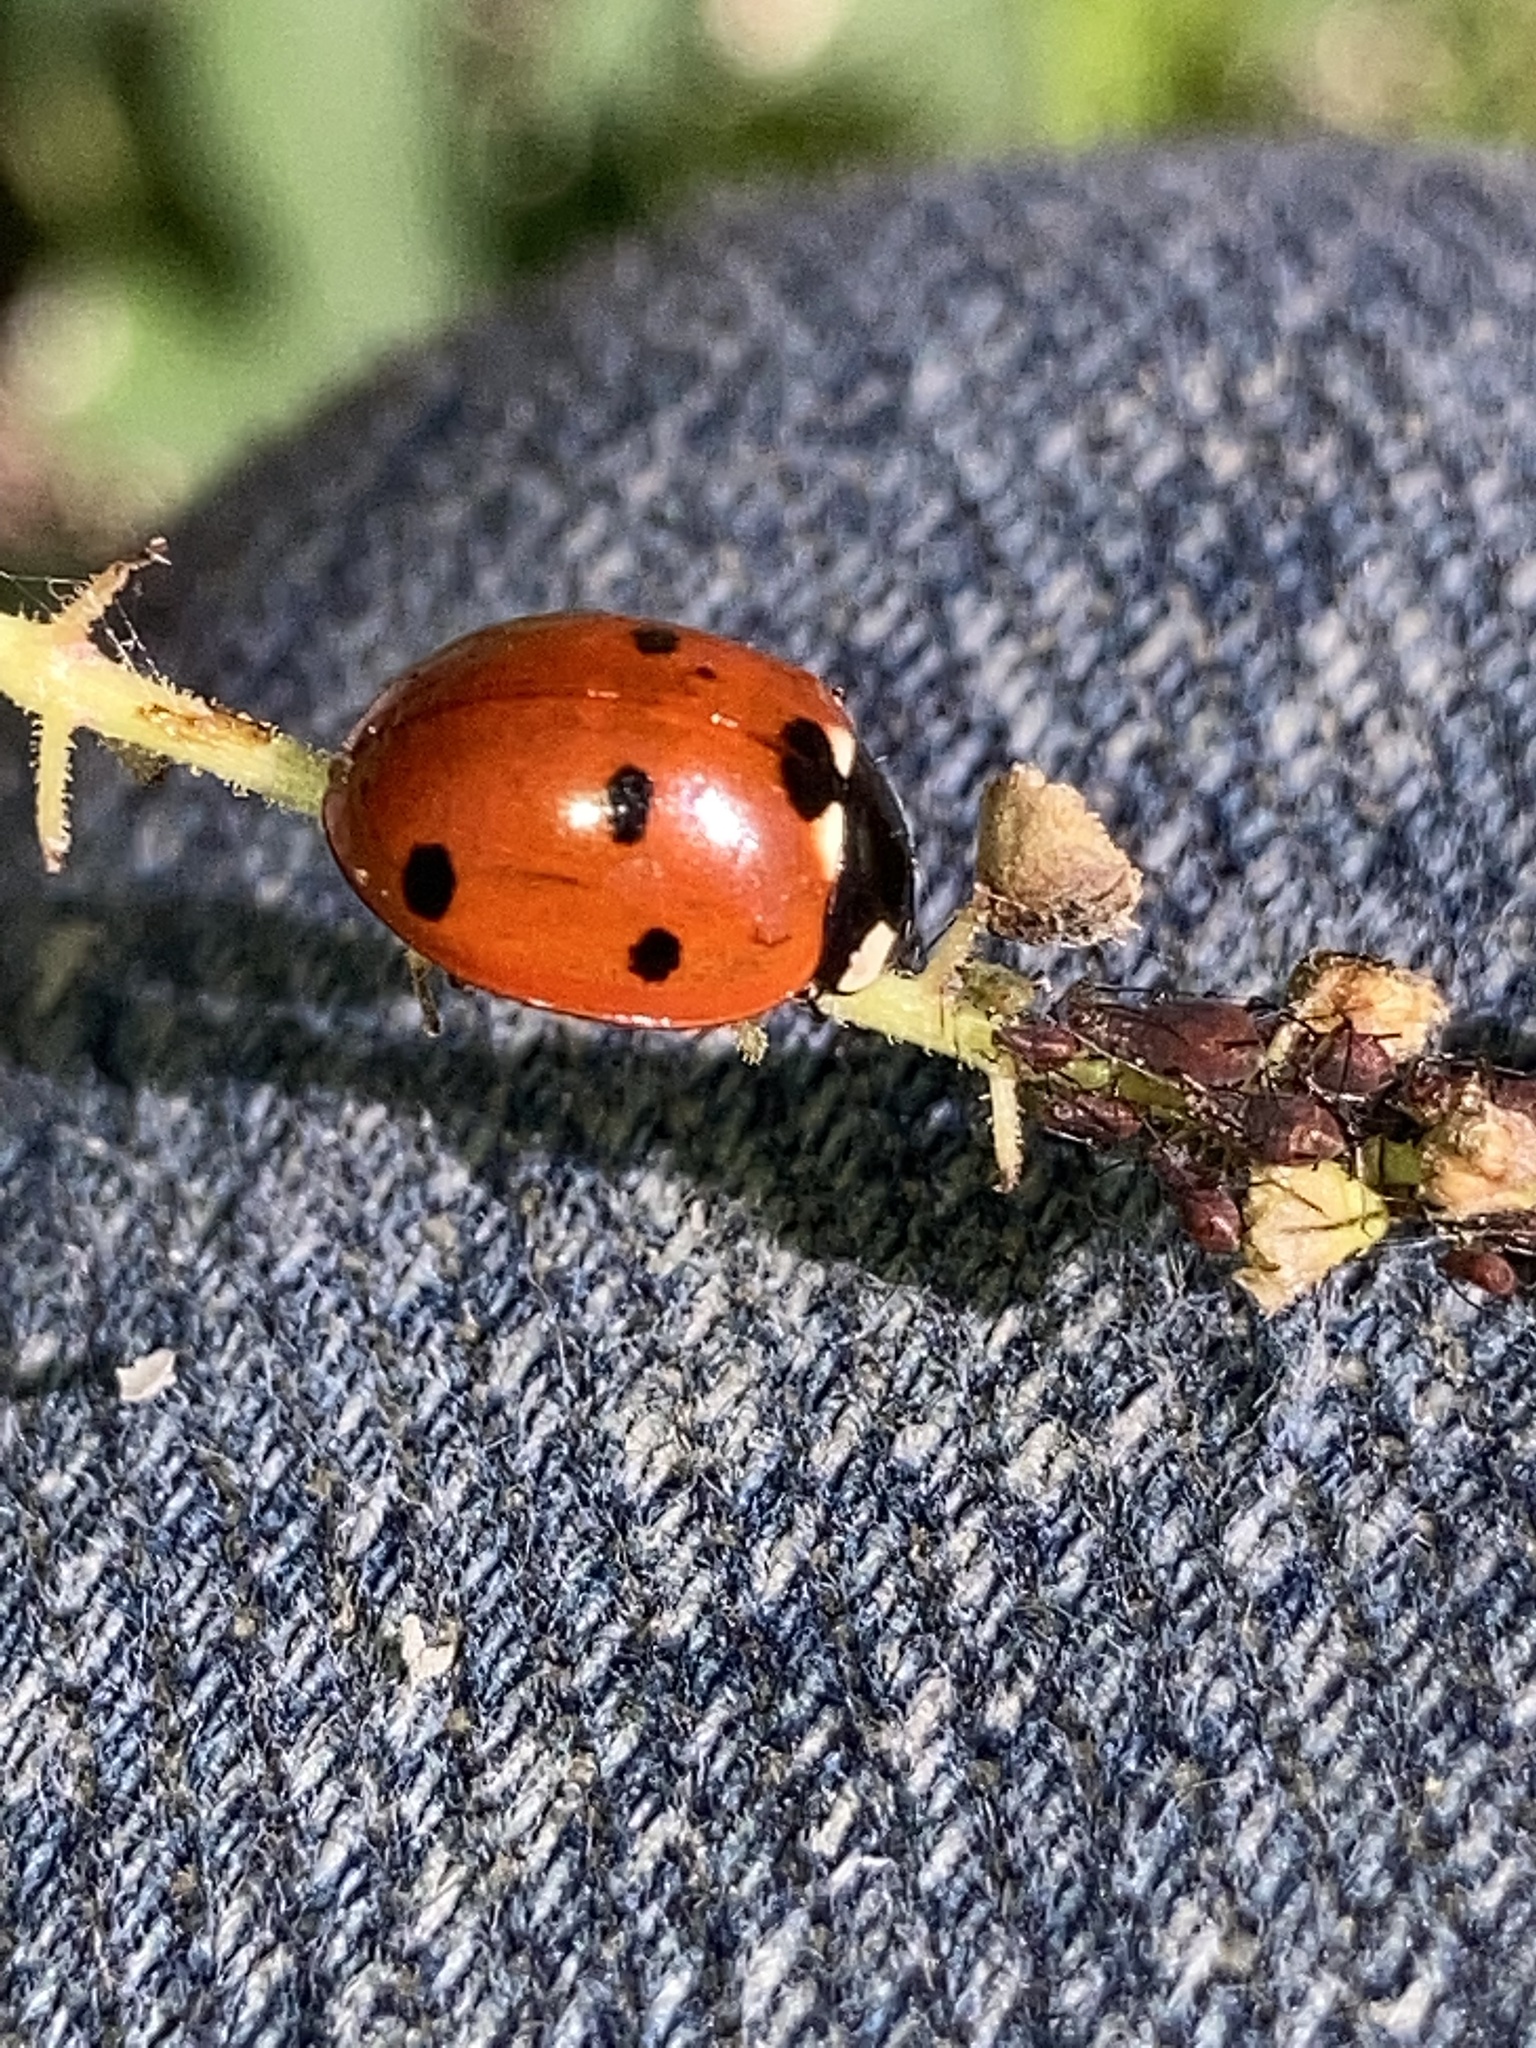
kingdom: Animalia
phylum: Arthropoda
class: Insecta
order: Coleoptera
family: Coccinellidae
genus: Coccinella
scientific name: Coccinella septempunctata
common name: Sevenspotted lady beetle
